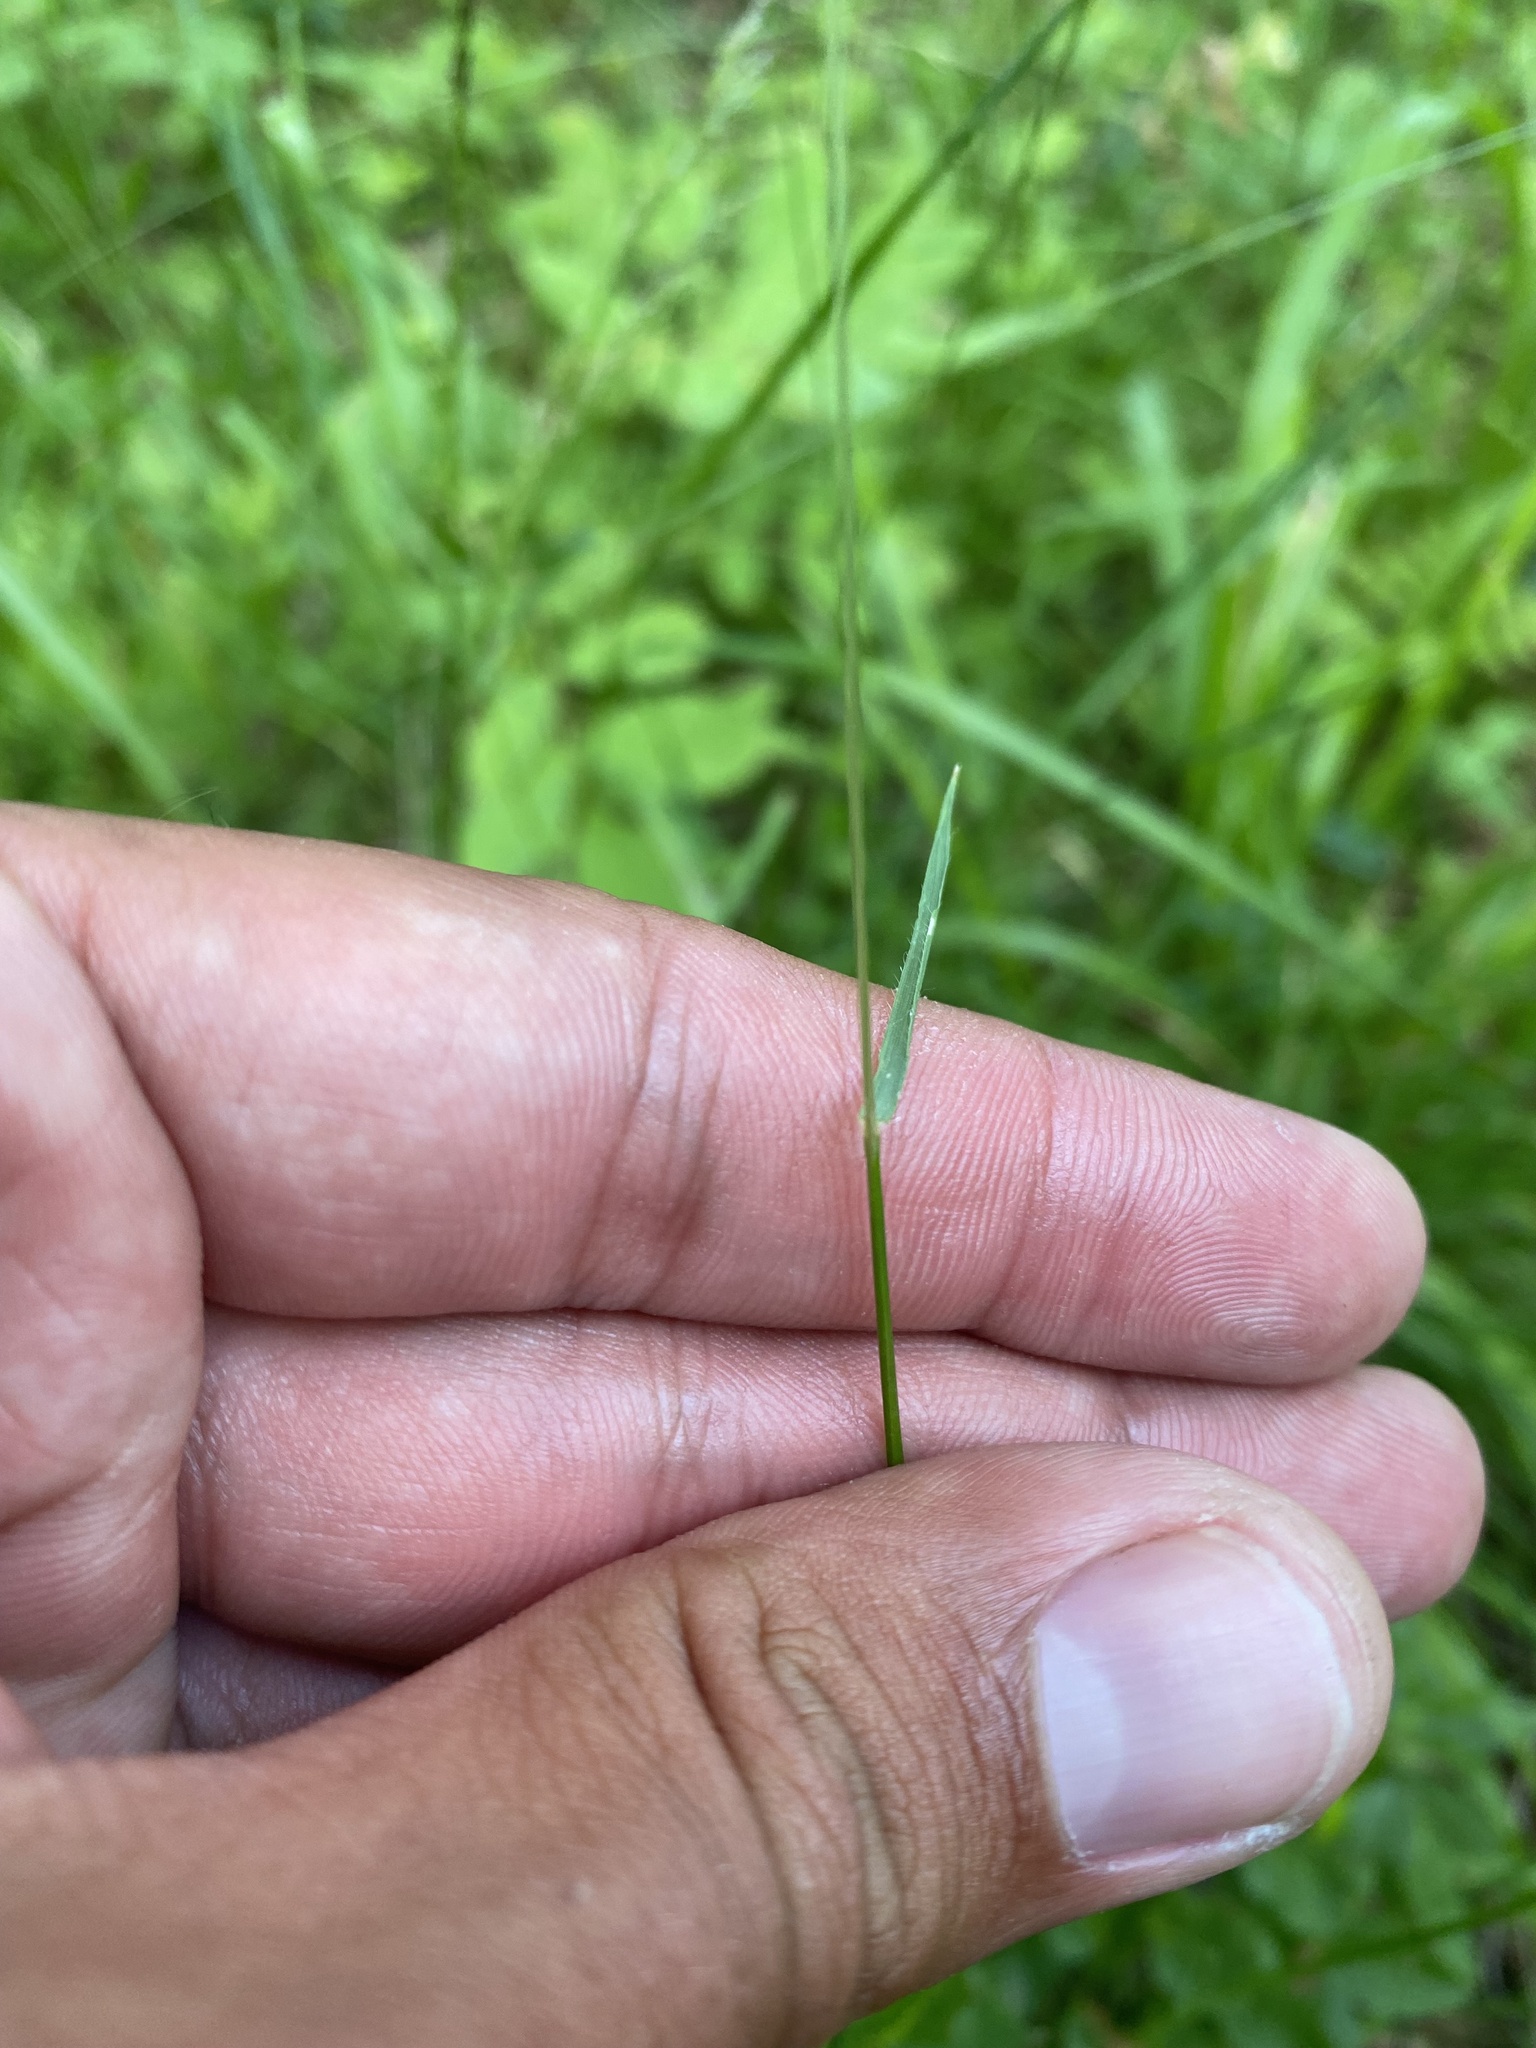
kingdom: Plantae
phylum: Tracheophyta
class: Liliopsida
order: Poales
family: Poaceae
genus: Anthoxanthum
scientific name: Anthoxanthum odoratum
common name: Sweet vernalgrass
